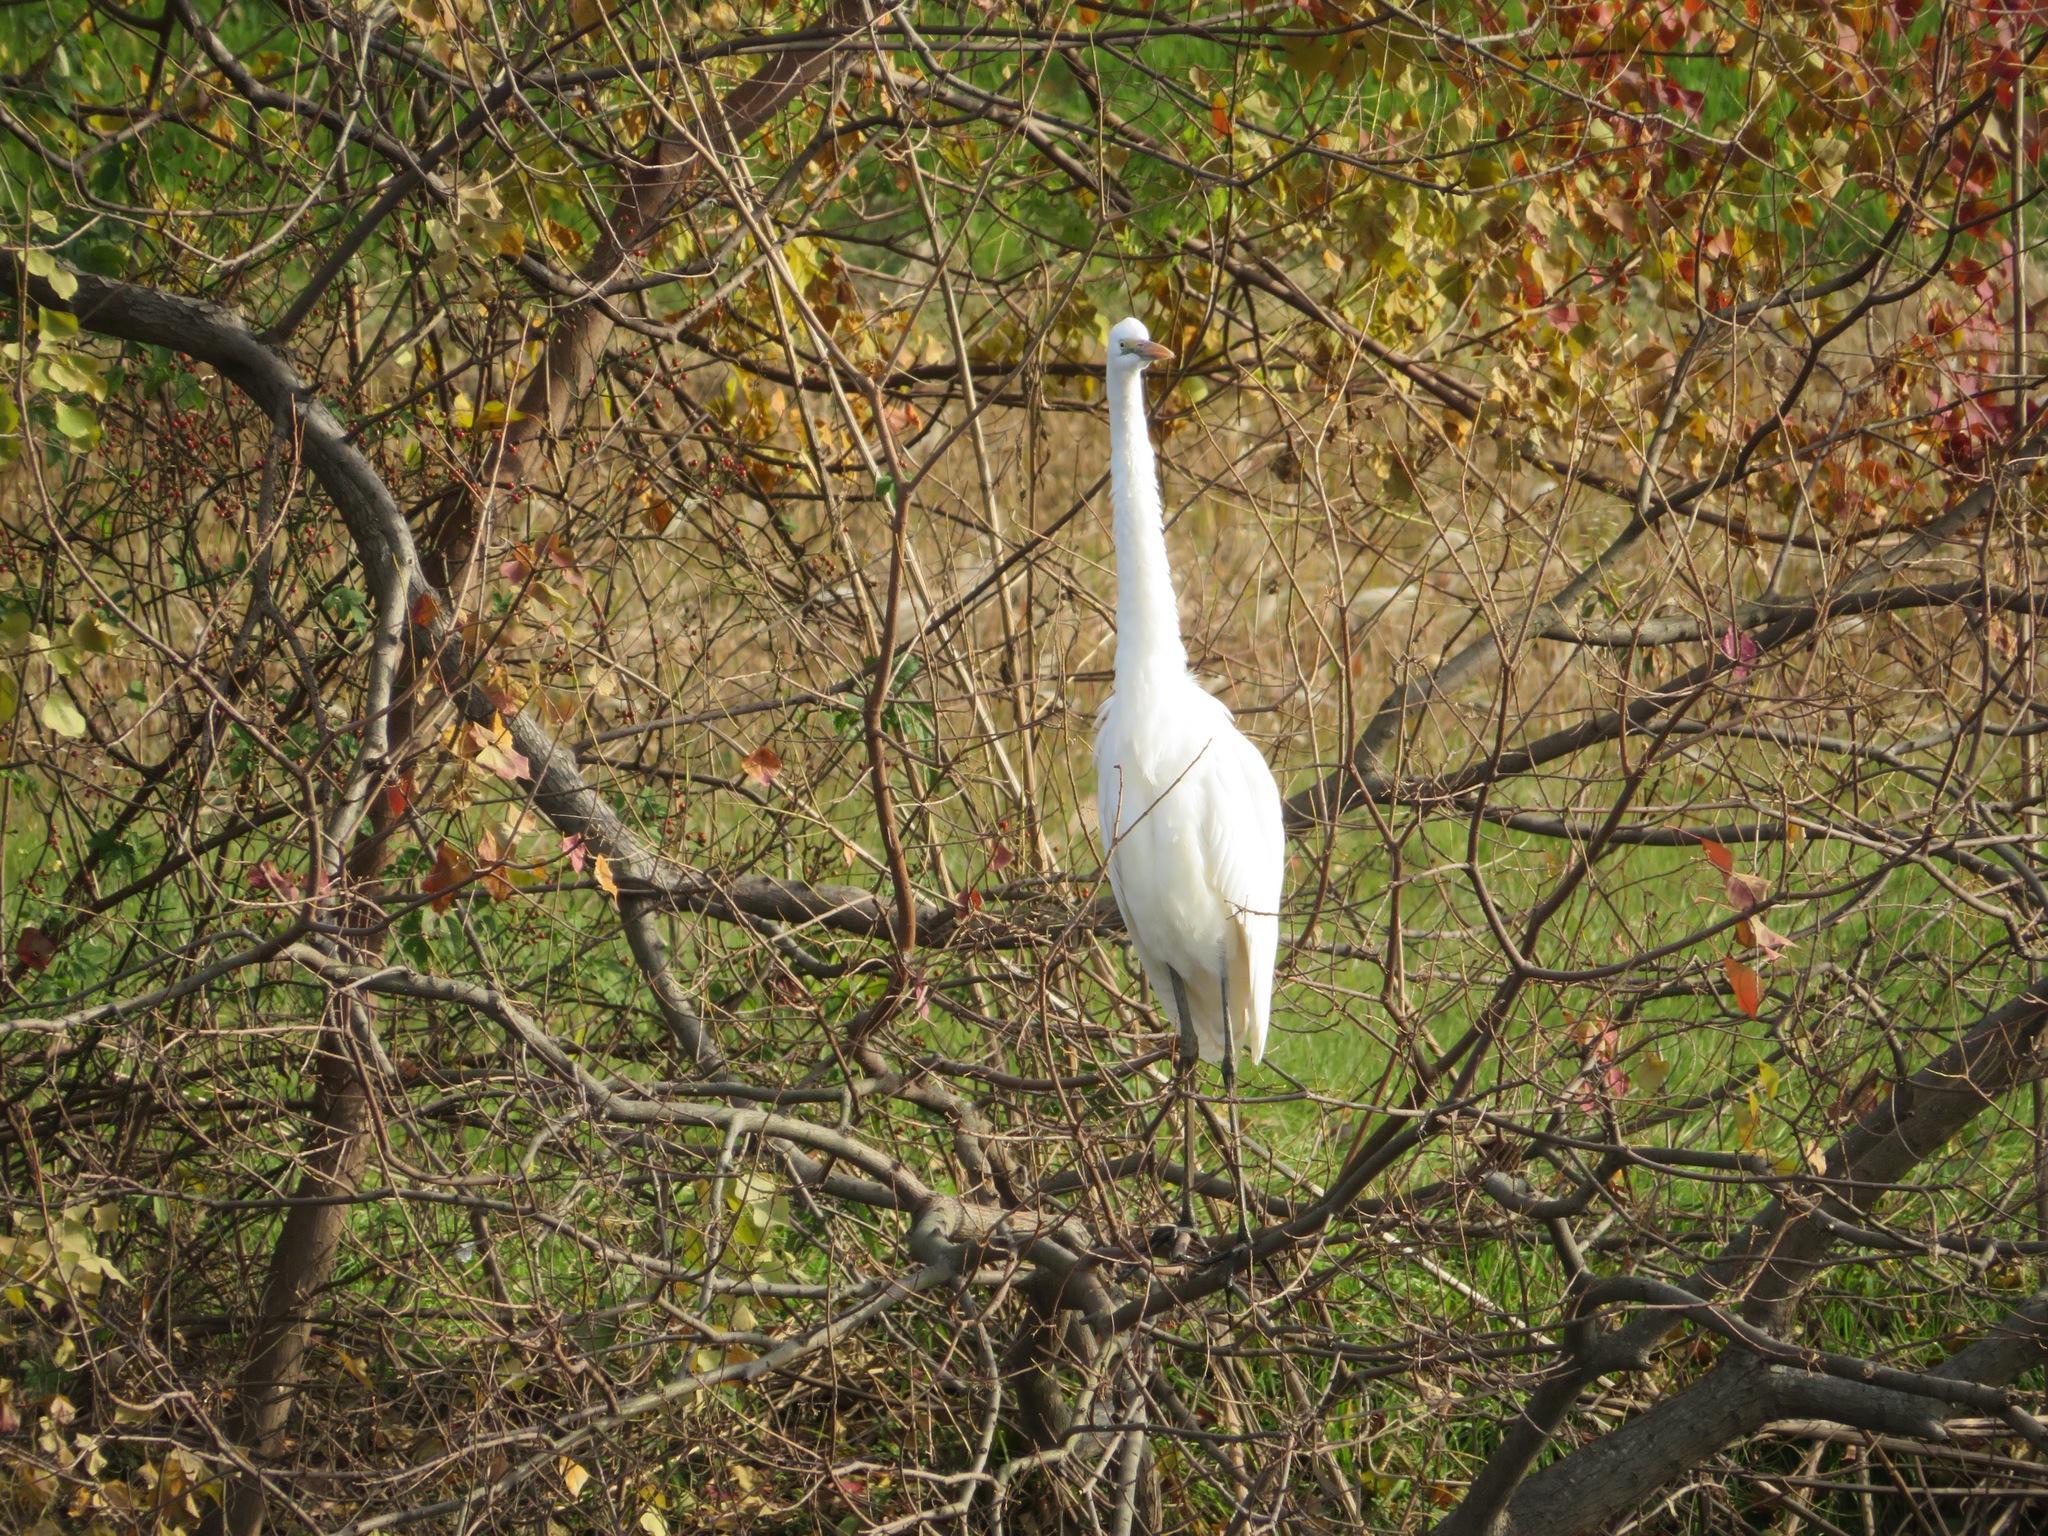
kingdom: Animalia
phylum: Chordata
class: Aves
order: Pelecaniformes
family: Ardeidae
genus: Ardea
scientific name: Ardea alba
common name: Great egret
